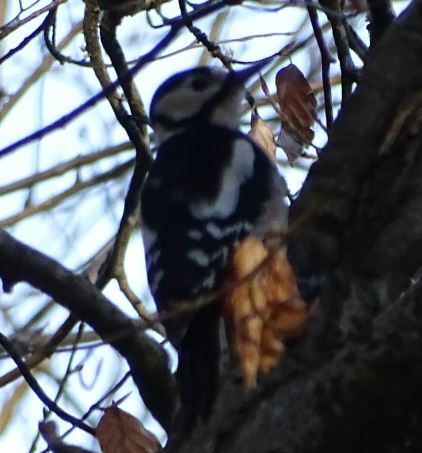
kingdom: Animalia
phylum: Chordata
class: Aves
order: Piciformes
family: Picidae
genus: Dendrocopos
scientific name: Dendrocopos major
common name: Great spotted woodpecker
